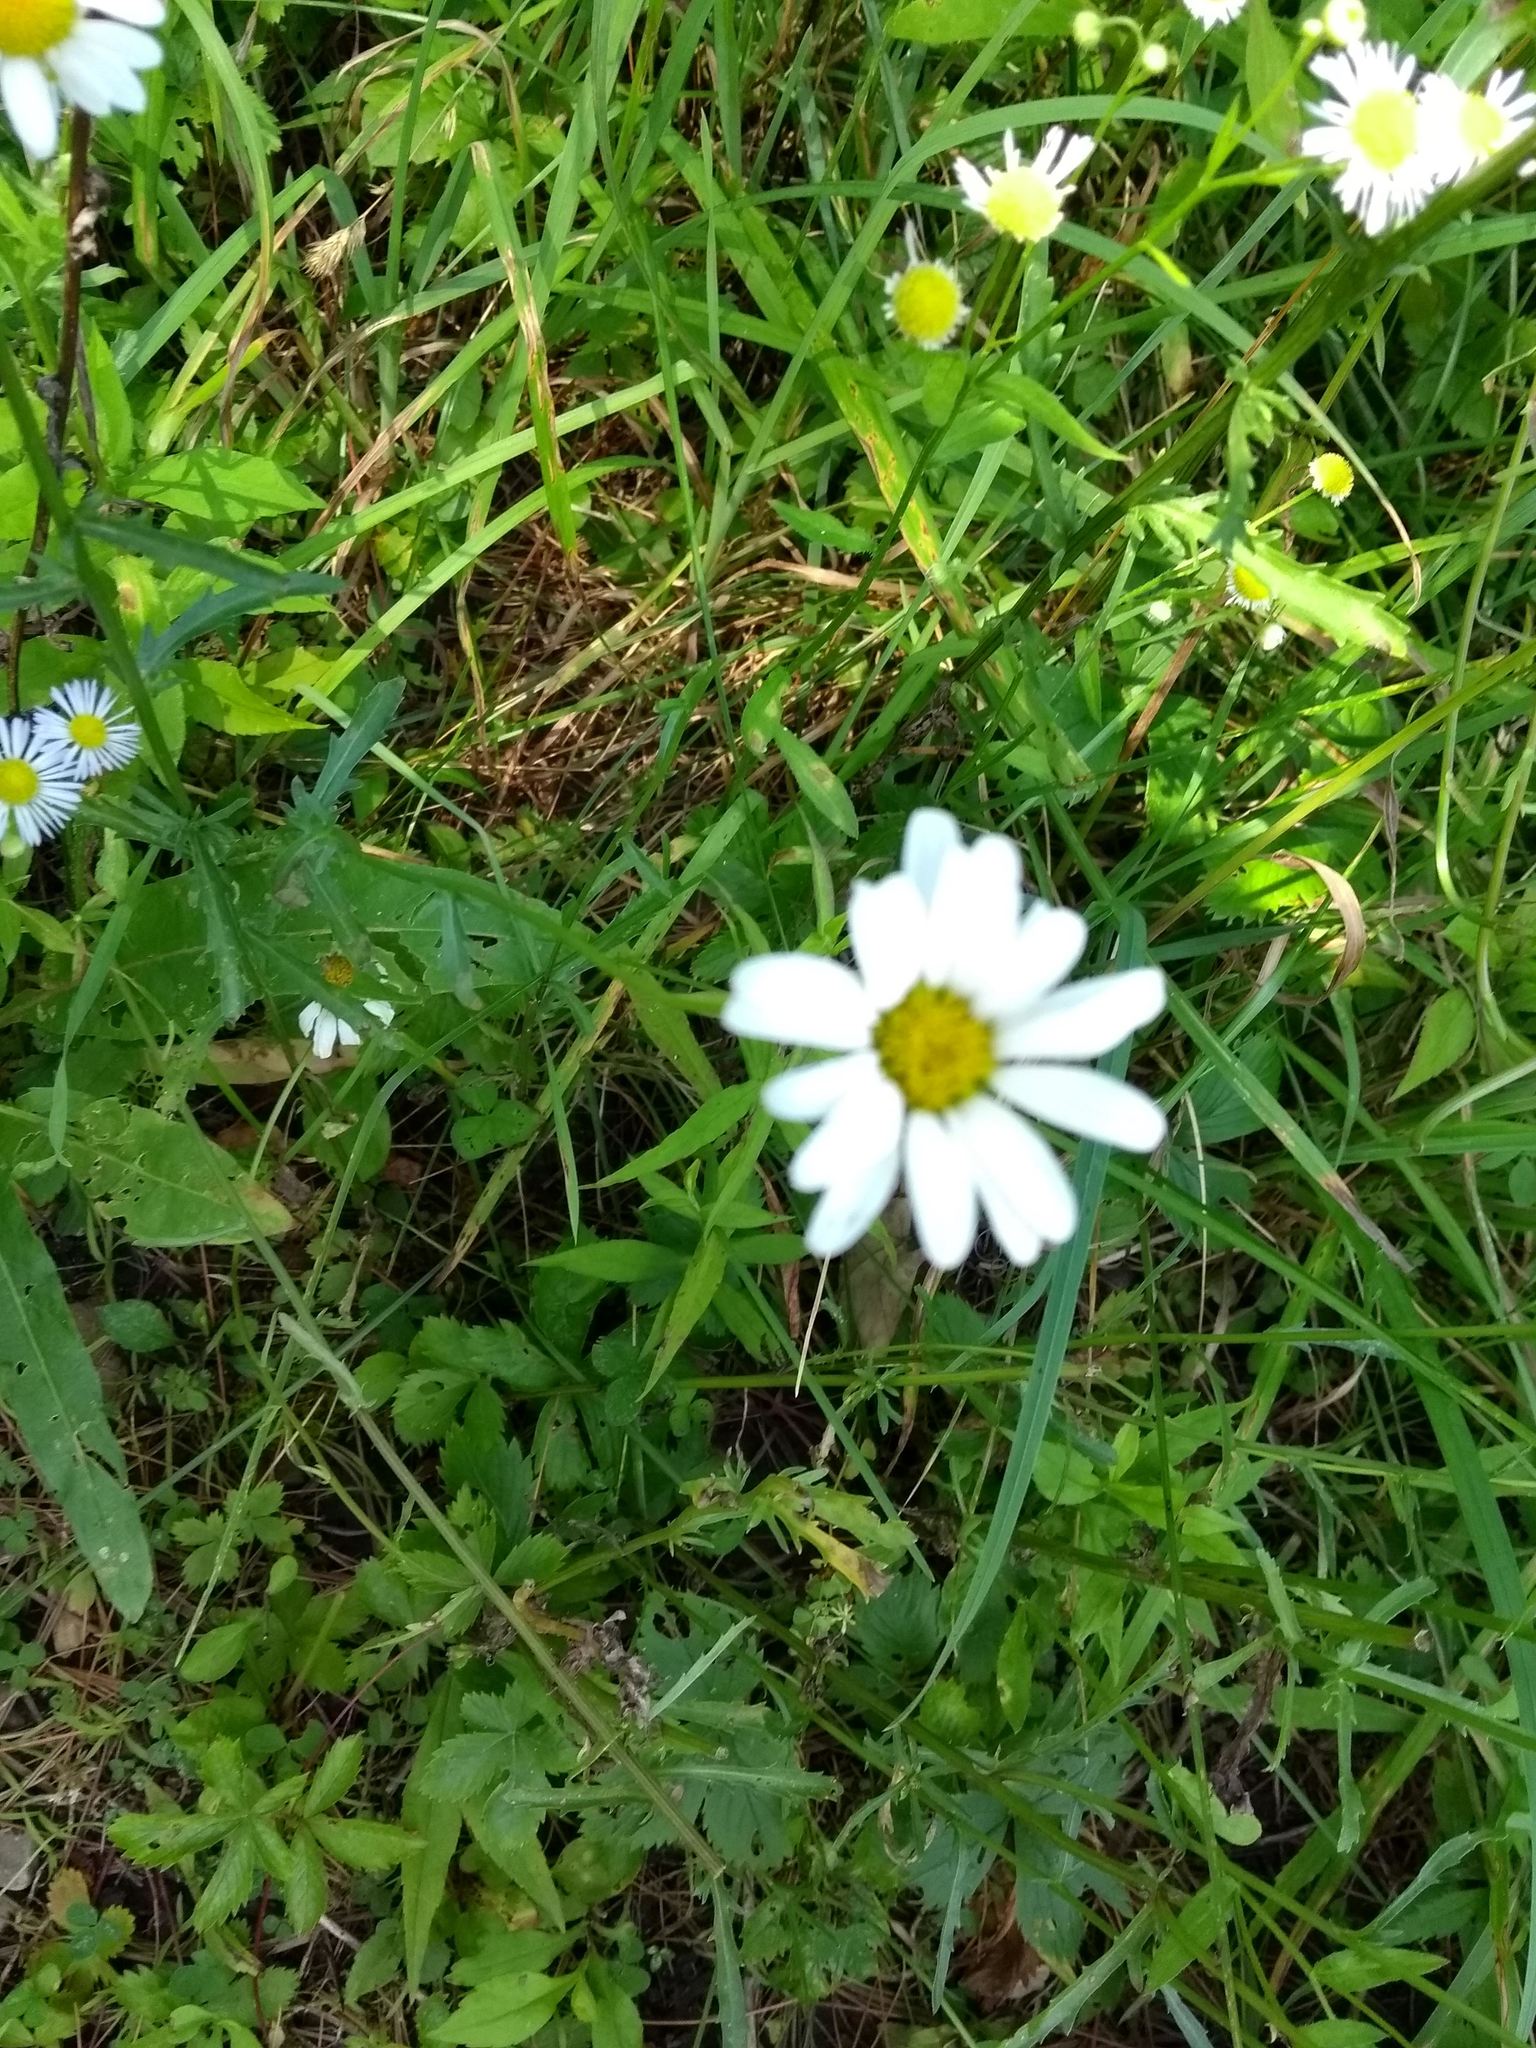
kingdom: Plantae
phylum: Tracheophyta
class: Magnoliopsida
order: Asterales
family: Asteraceae
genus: Leucanthemum
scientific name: Leucanthemum vulgare
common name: Oxeye daisy
